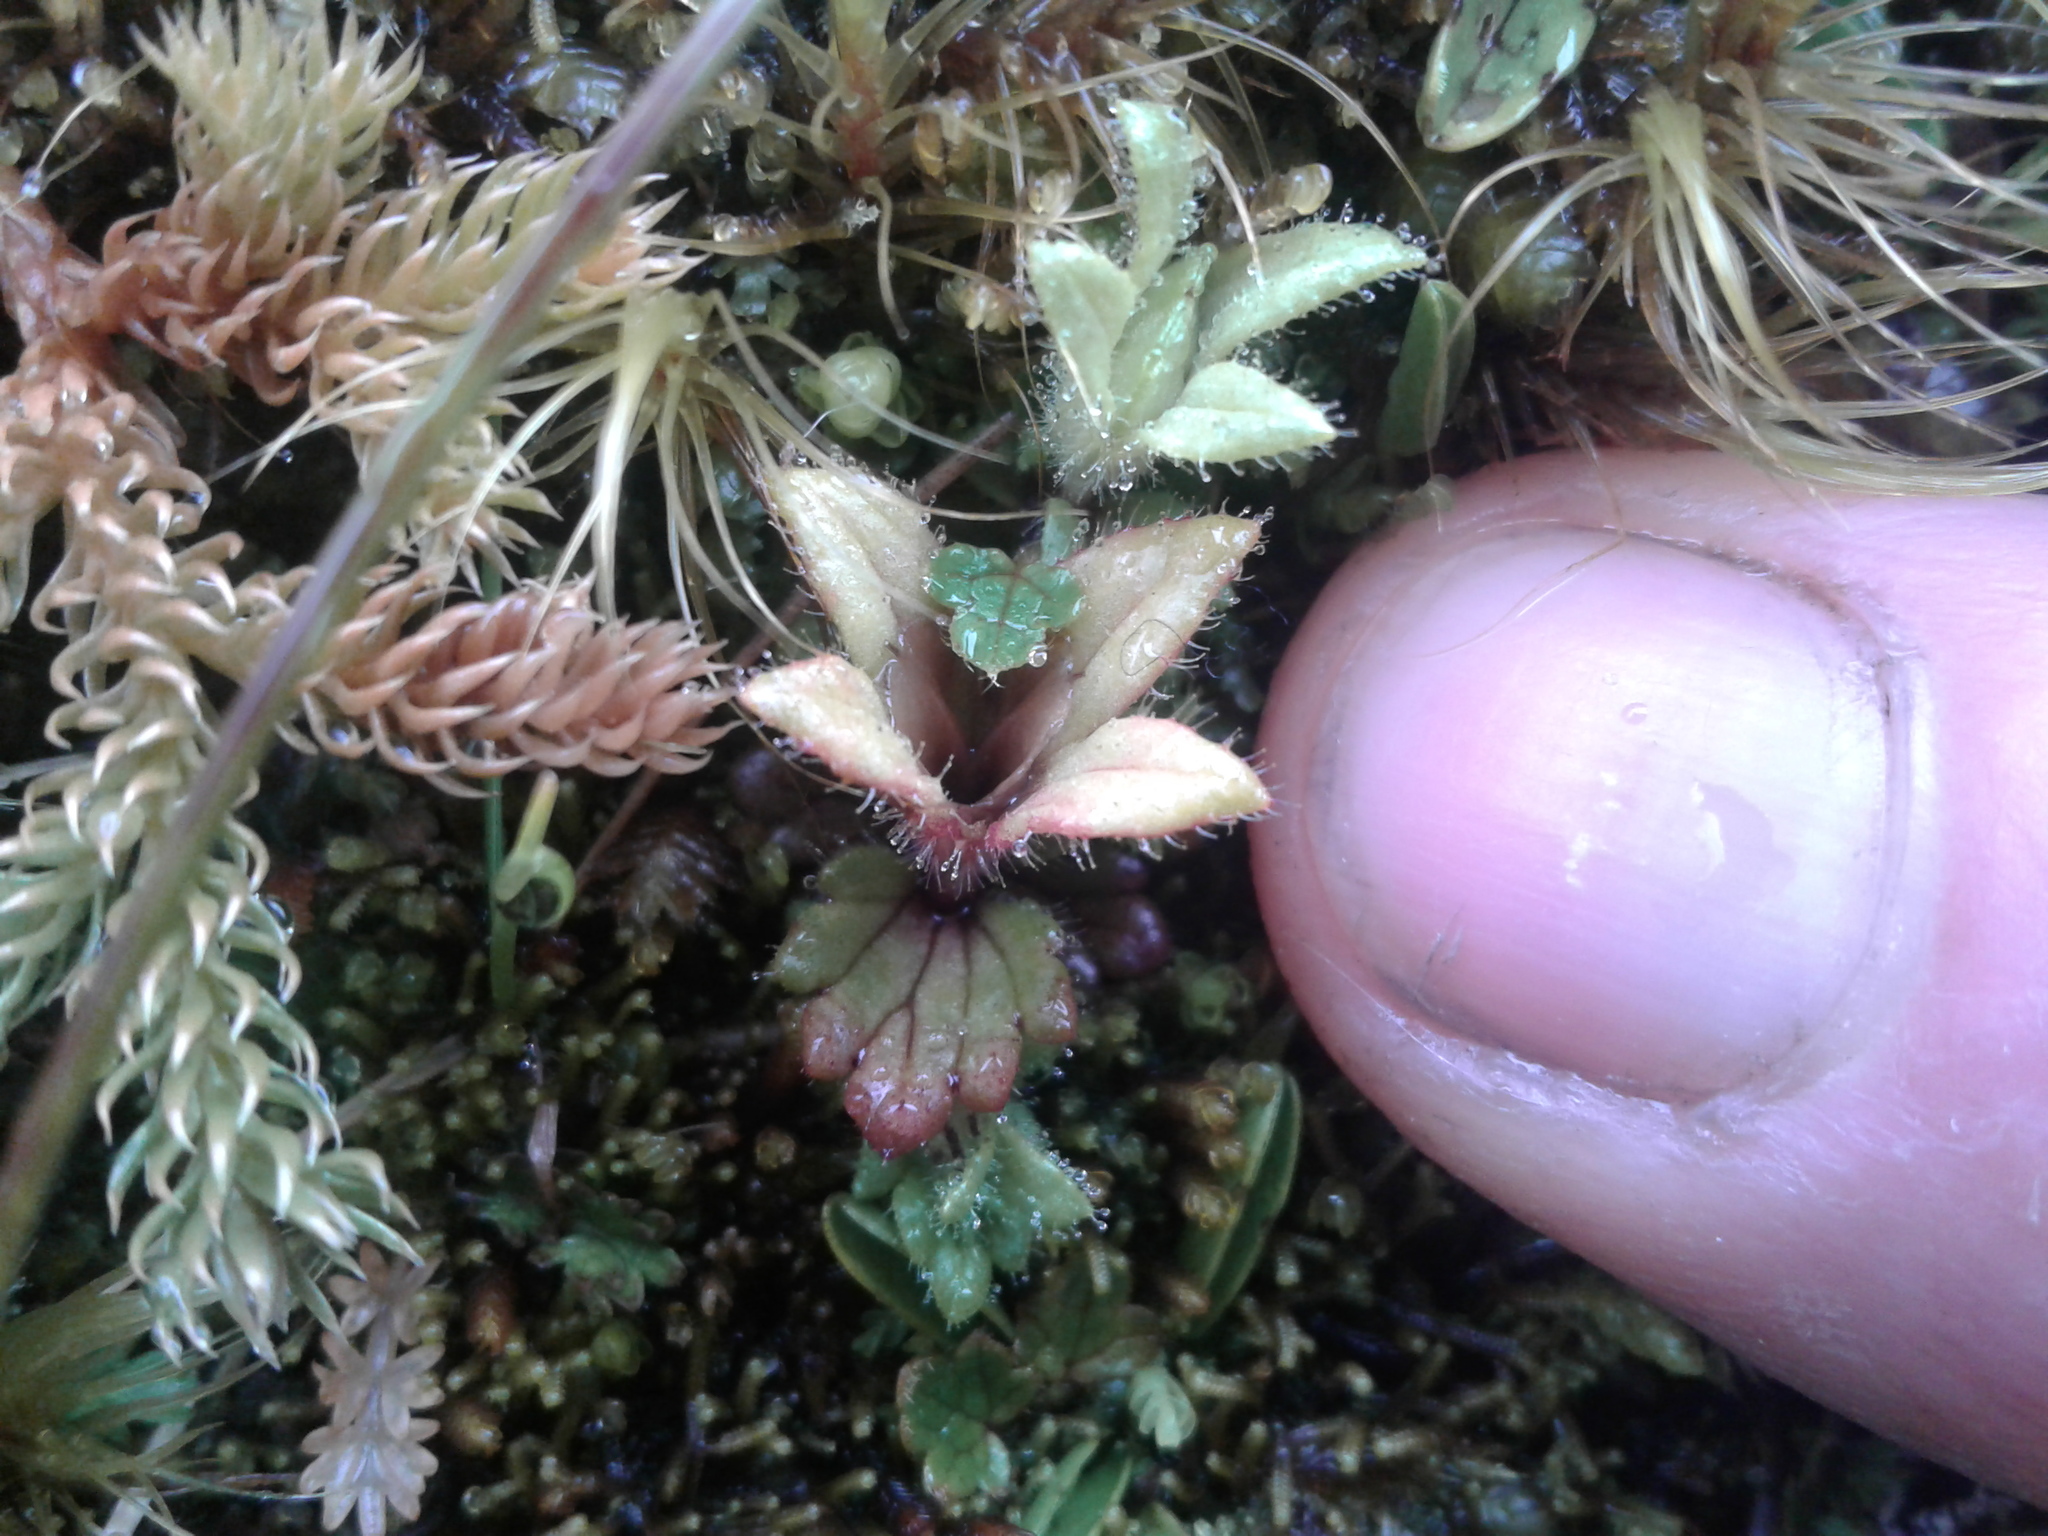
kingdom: Plantae
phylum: Tracheophyta
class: Magnoliopsida
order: Lamiales
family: Orobanchaceae
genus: Euphrasia
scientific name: Euphrasia zelandica
